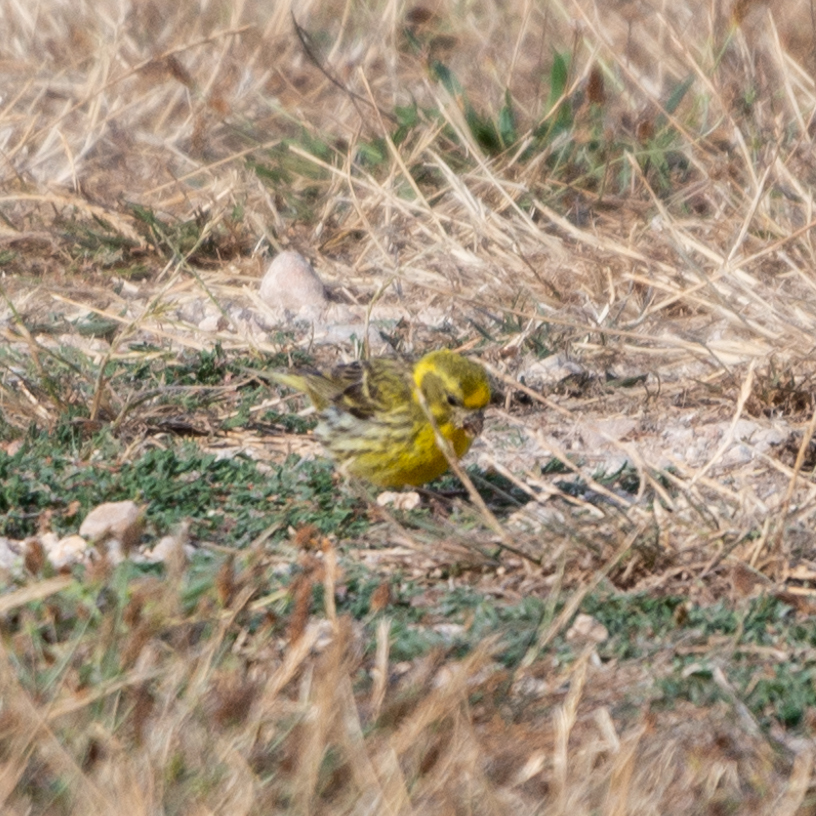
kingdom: Animalia
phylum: Chordata
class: Aves
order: Passeriformes
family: Fringillidae
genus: Serinus
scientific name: Serinus serinus
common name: European serin
